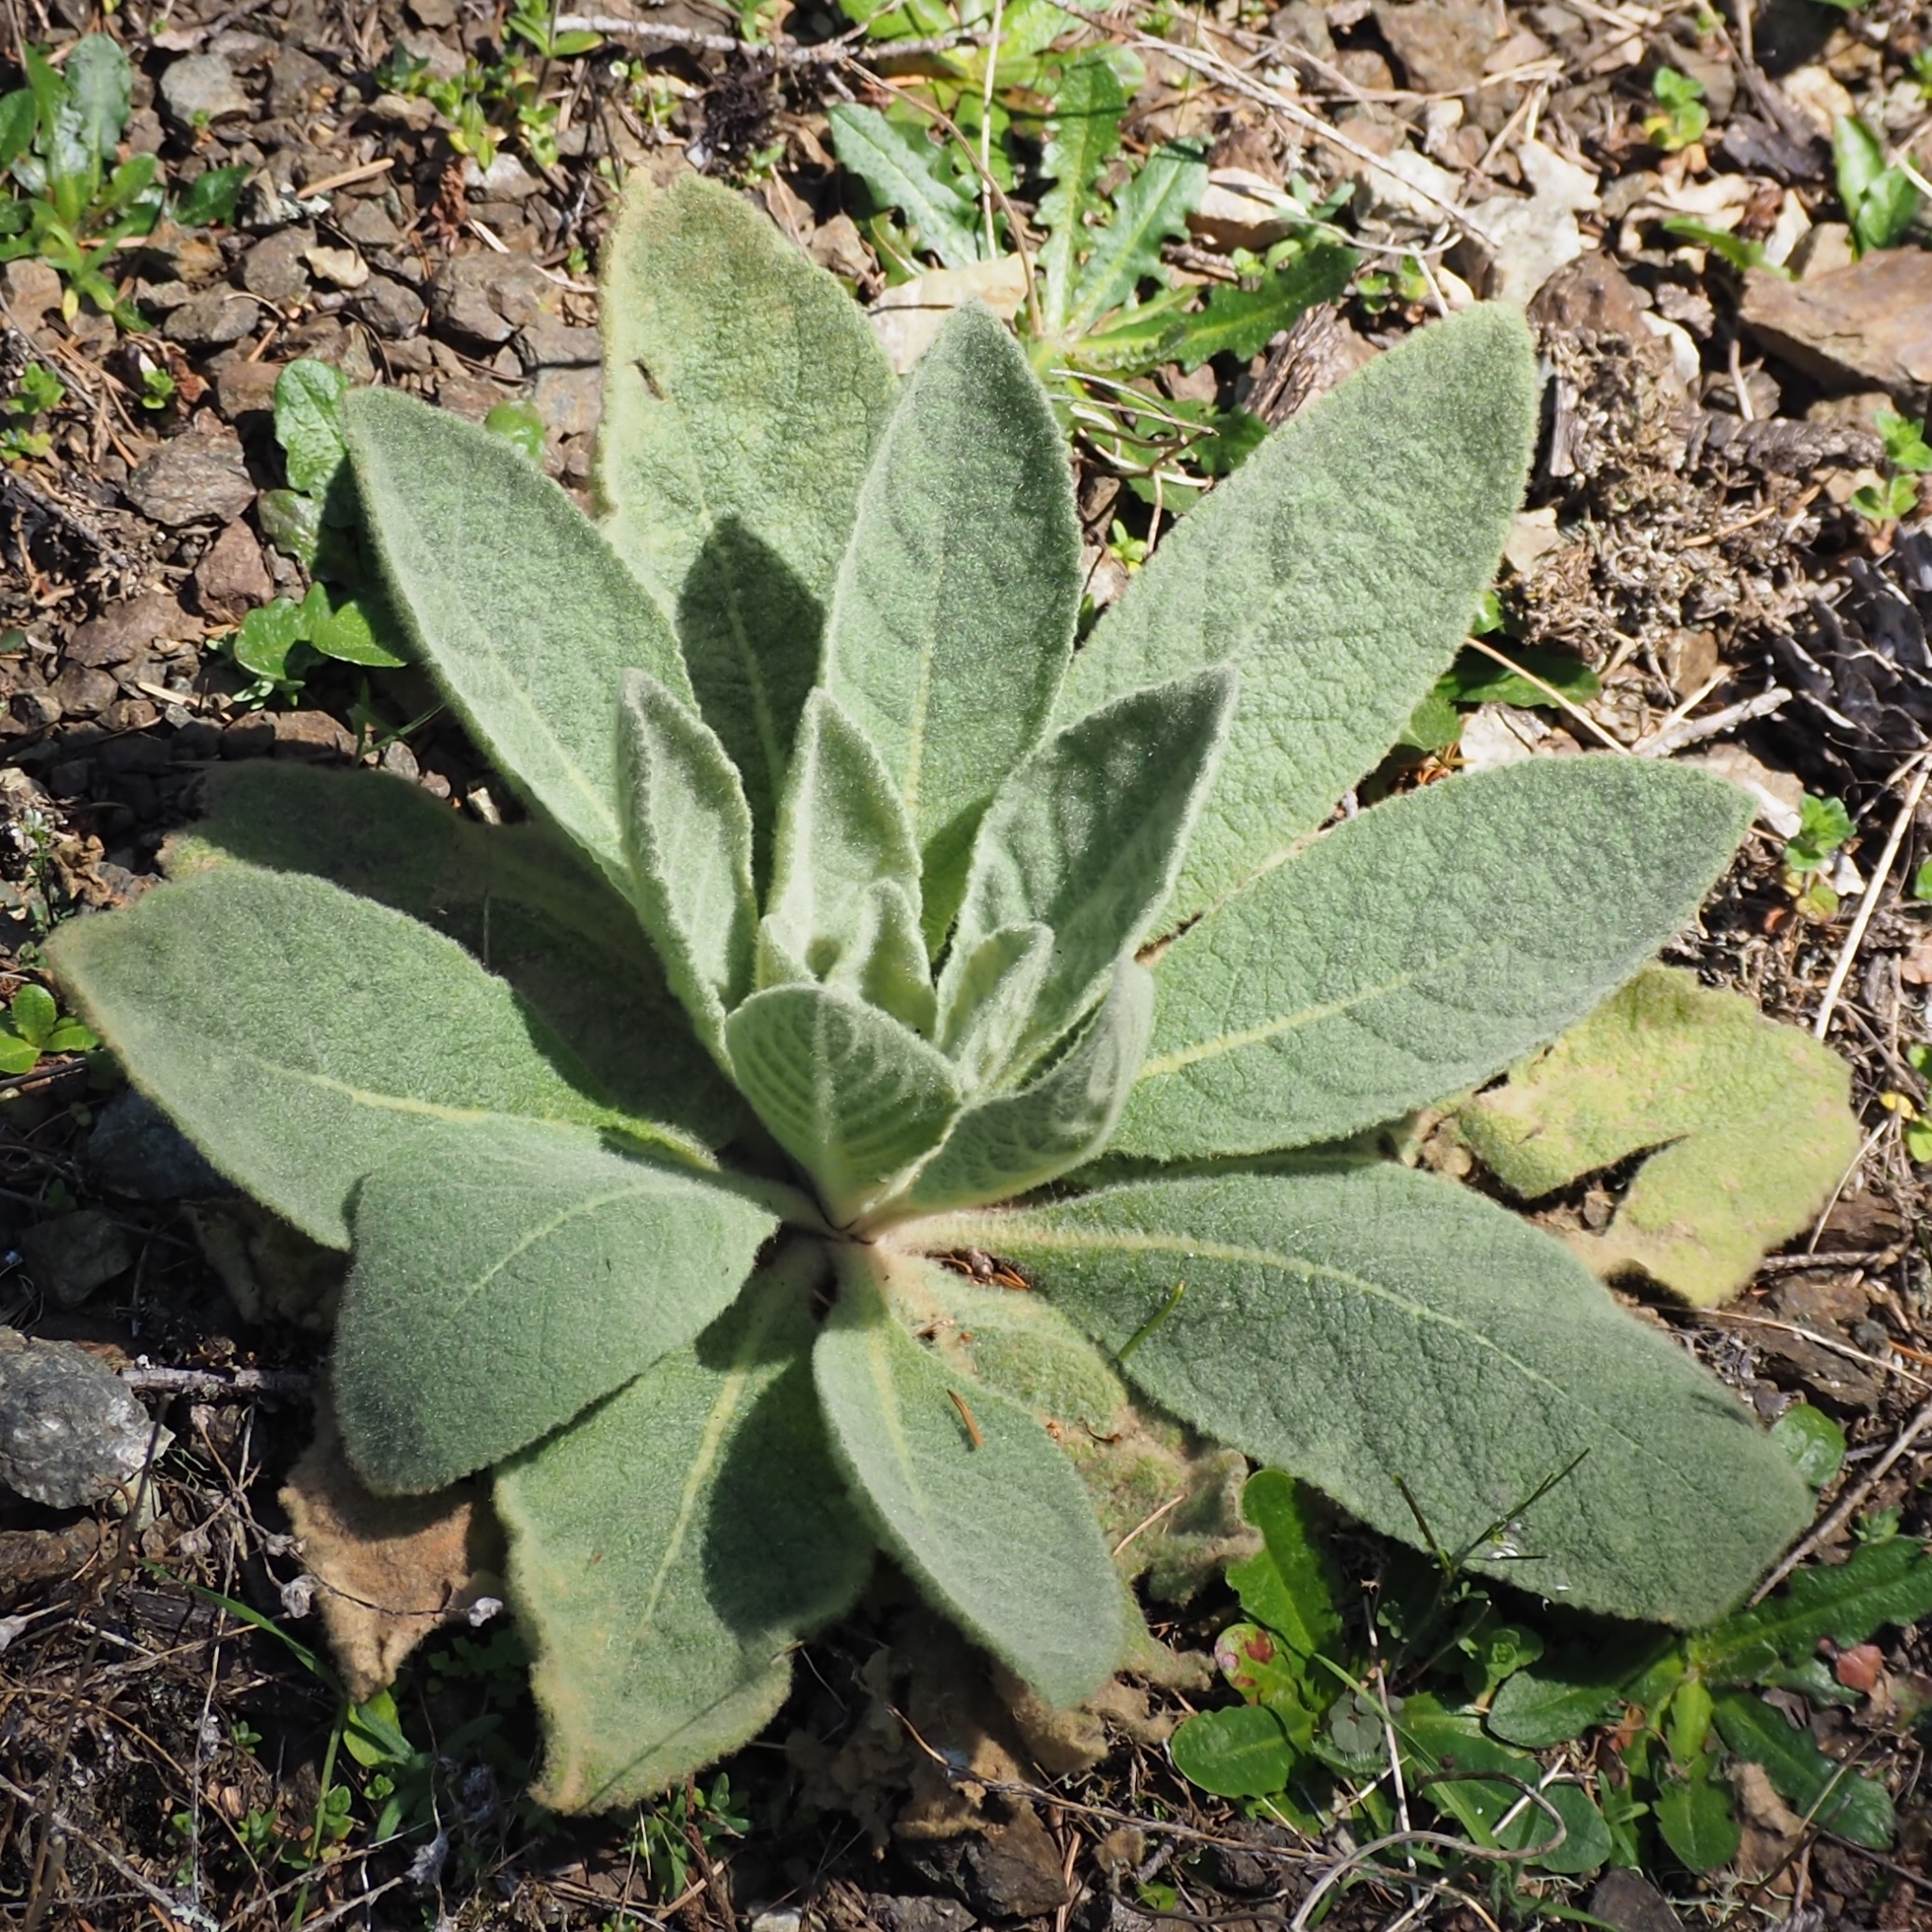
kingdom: Plantae
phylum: Tracheophyta
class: Magnoliopsida
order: Lamiales
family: Scrophulariaceae
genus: Verbascum
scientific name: Verbascum thapsus
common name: Common mullein
